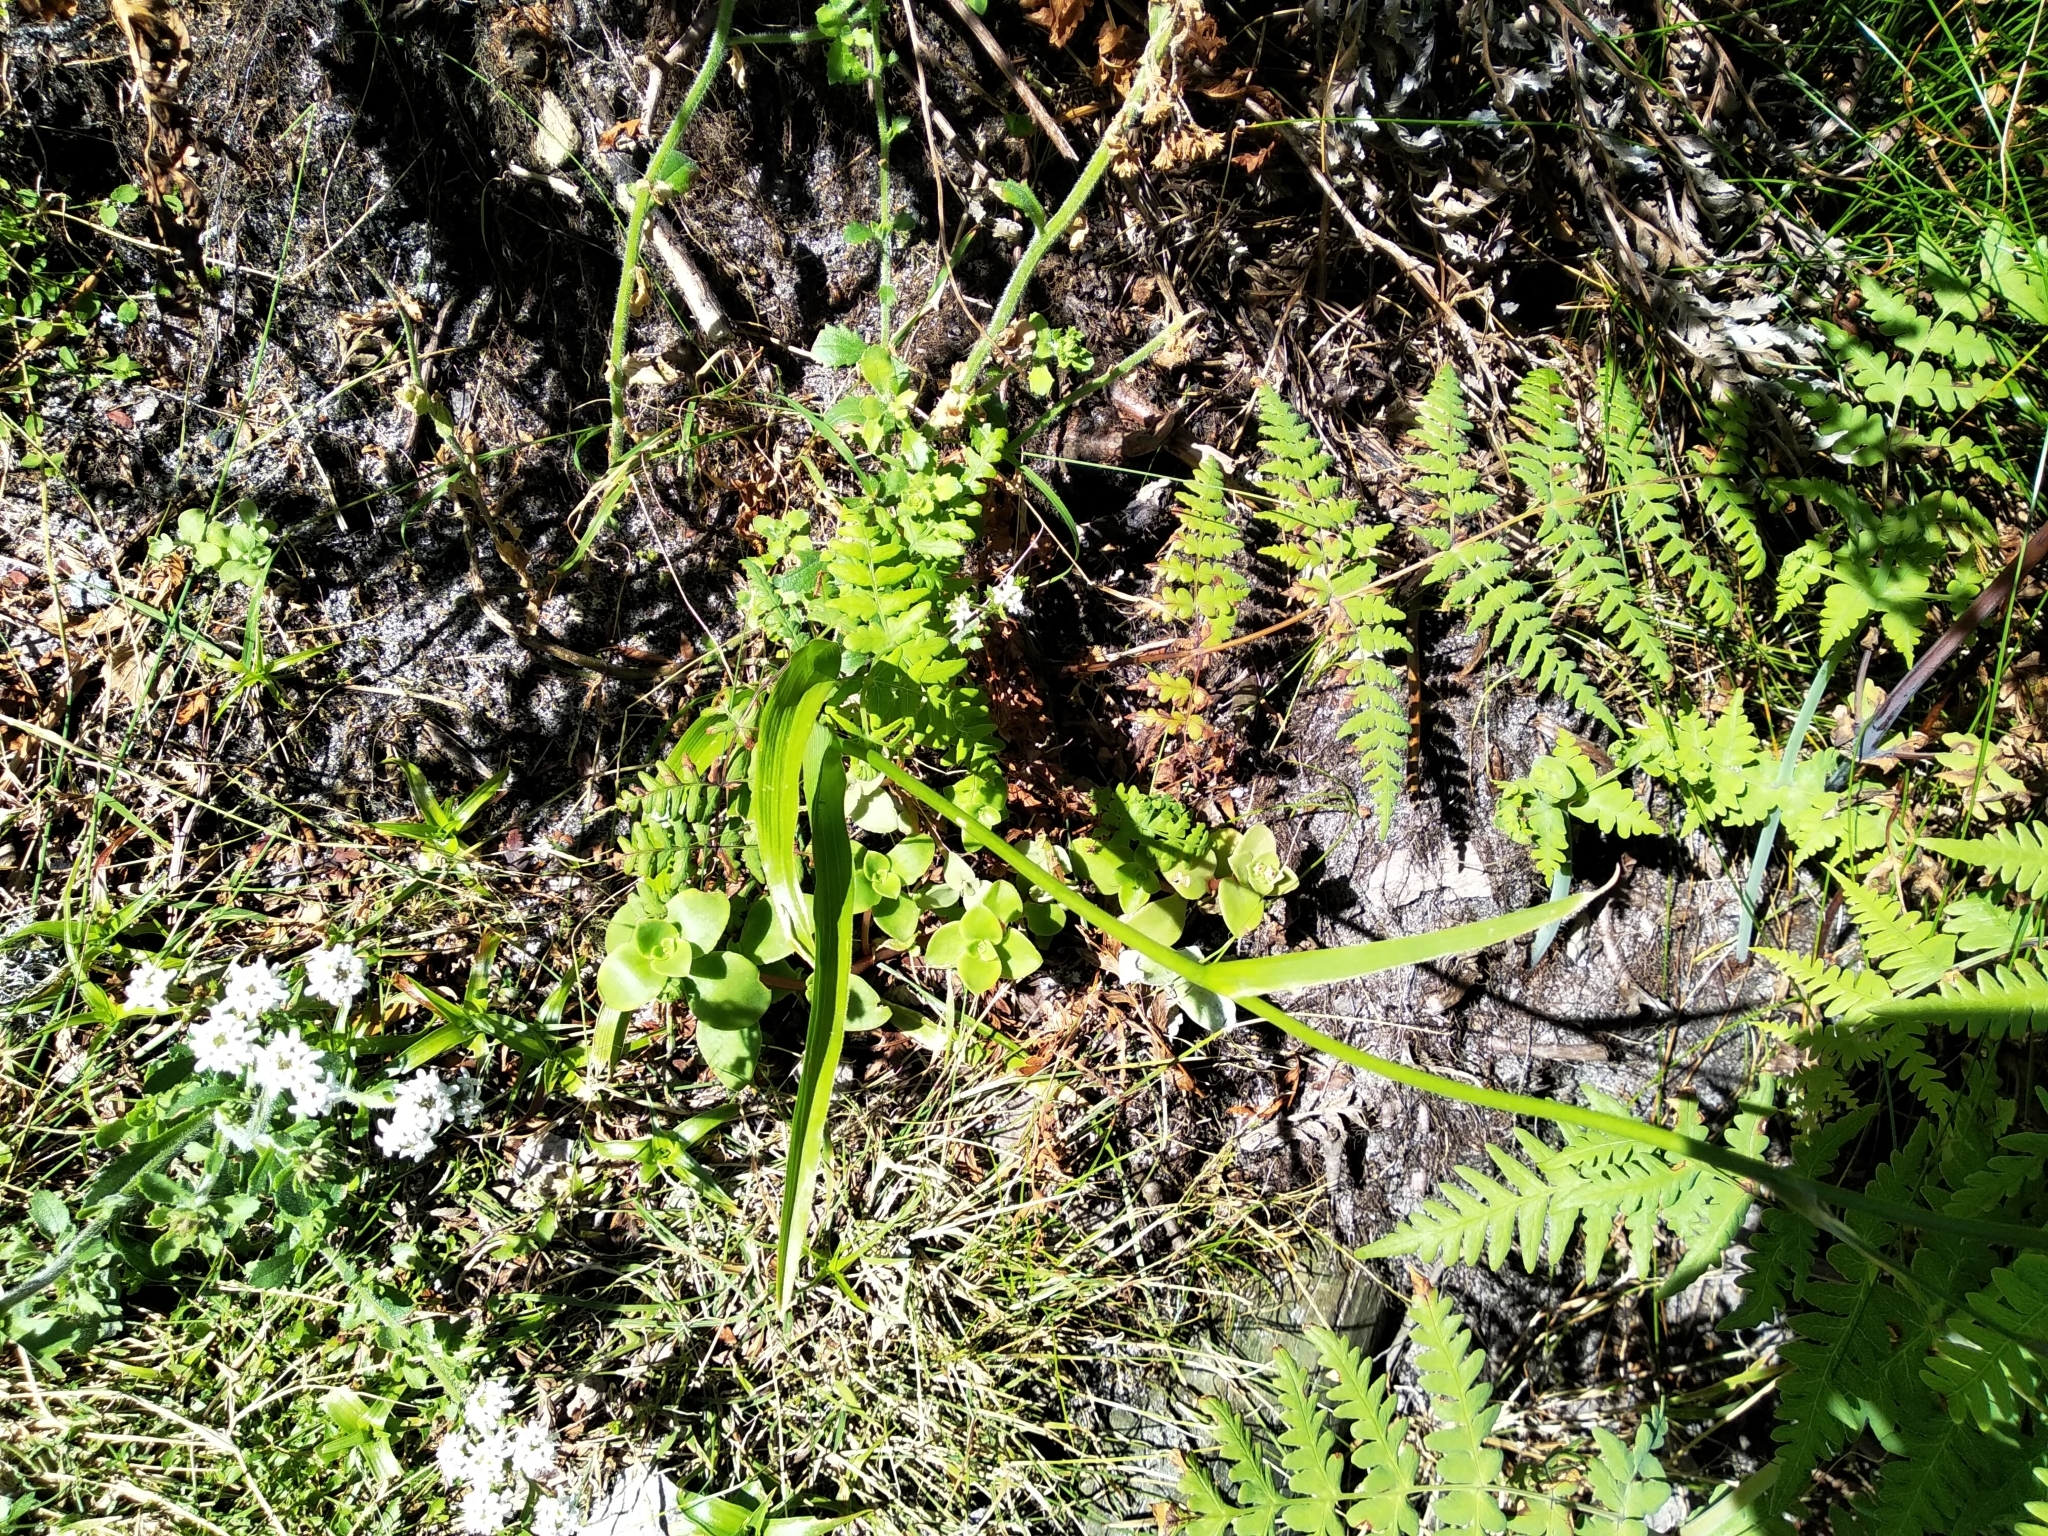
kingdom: Plantae
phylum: Tracheophyta
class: Liliopsida
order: Asparagales
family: Iridaceae
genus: Moraea
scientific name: Moraea ramosissima
